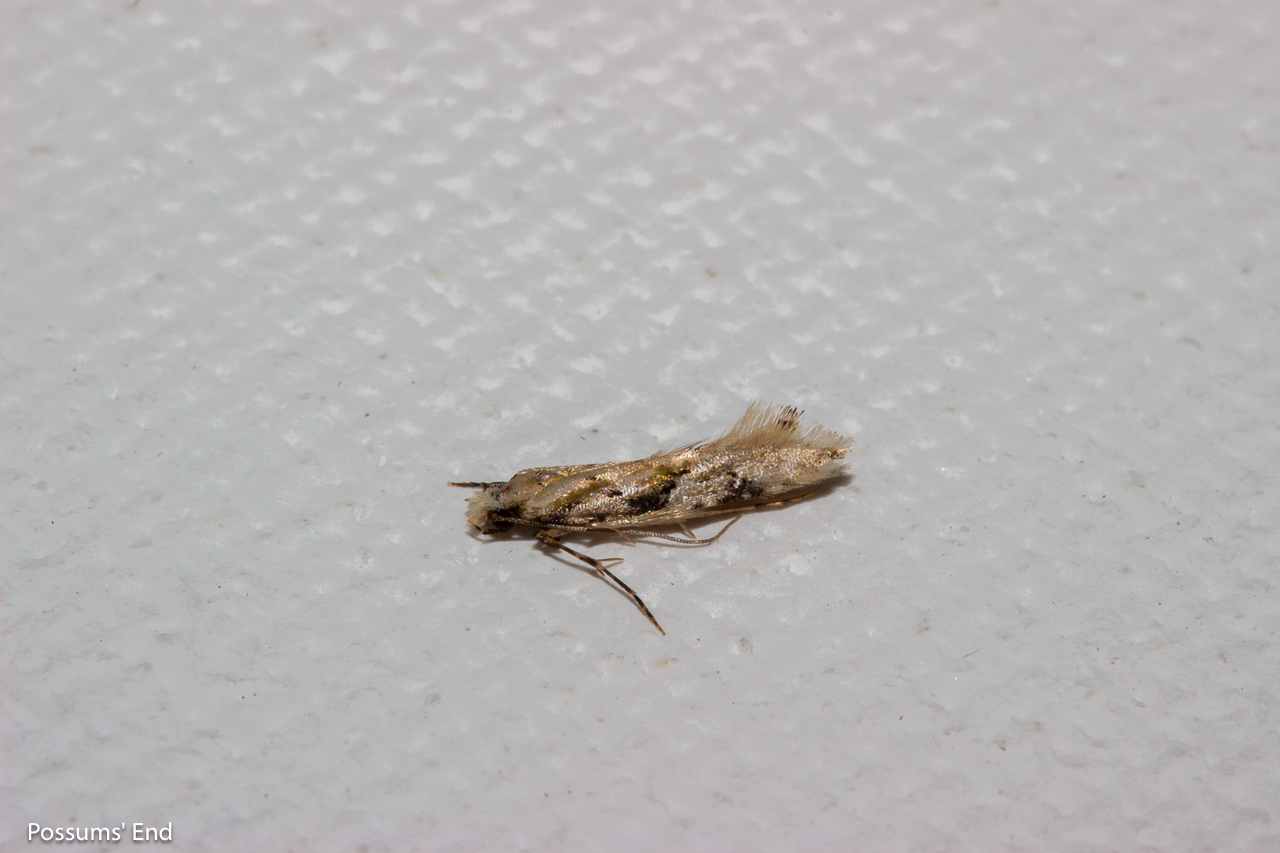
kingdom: Animalia
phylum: Arthropoda
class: Insecta
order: Lepidoptera
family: Tineidae
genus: Crypsitricha
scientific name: Crypsitricha mesotypa
